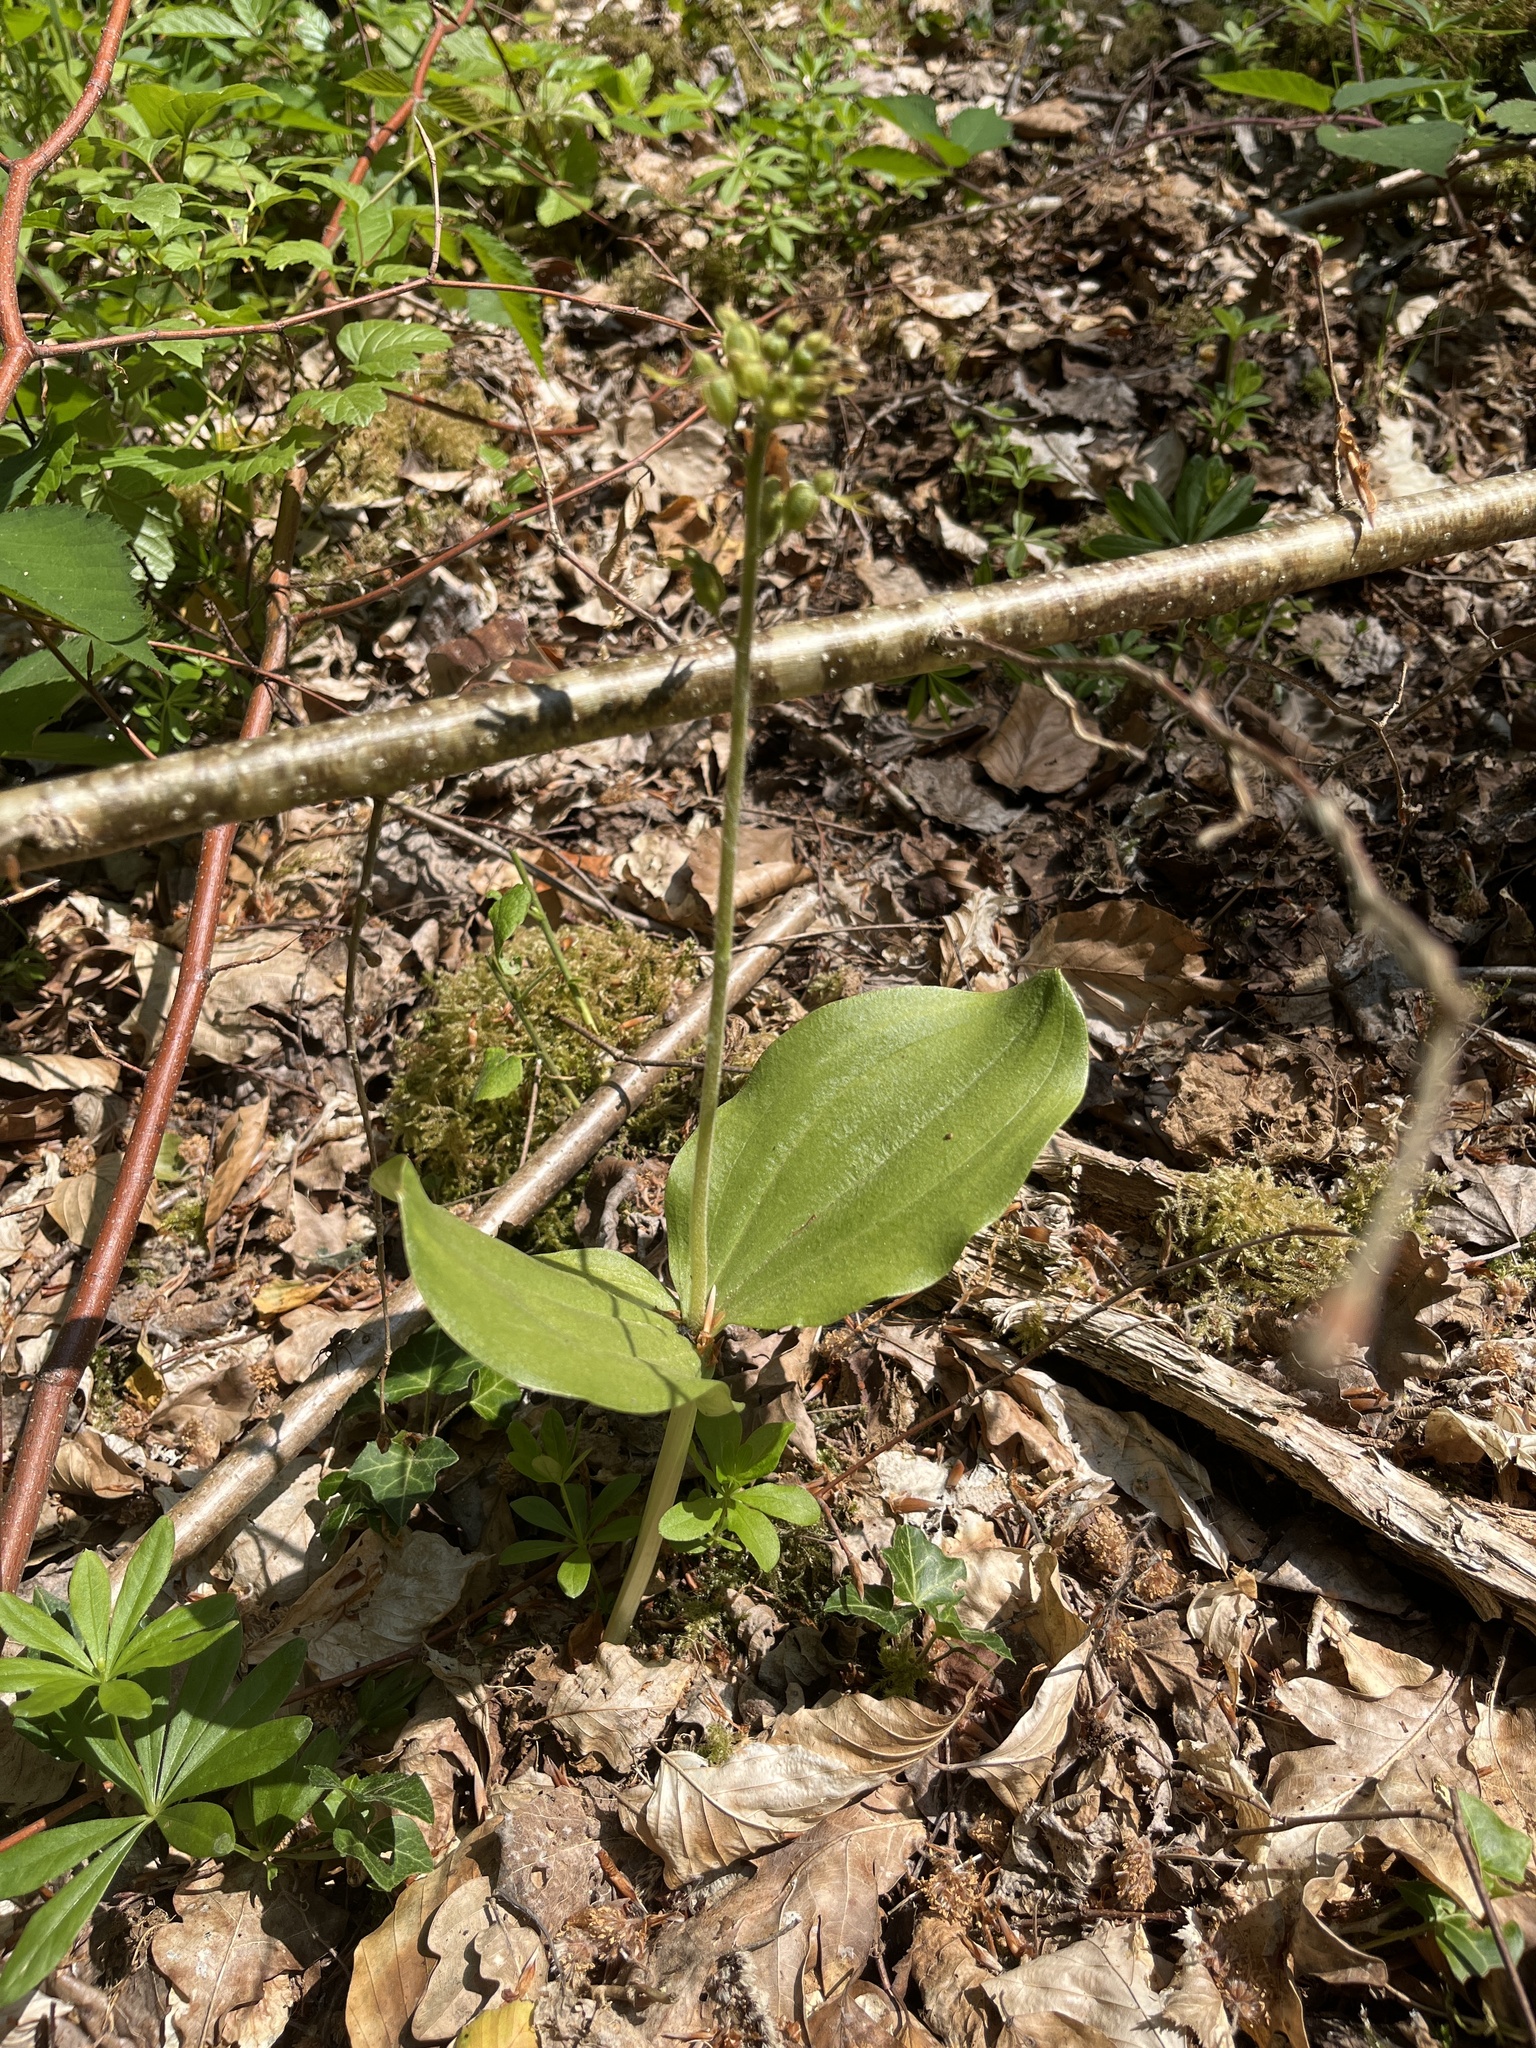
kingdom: Plantae
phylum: Tracheophyta
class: Liliopsida
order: Asparagales
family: Orchidaceae
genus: Neottia
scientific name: Neottia ovata
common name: Common twayblade
